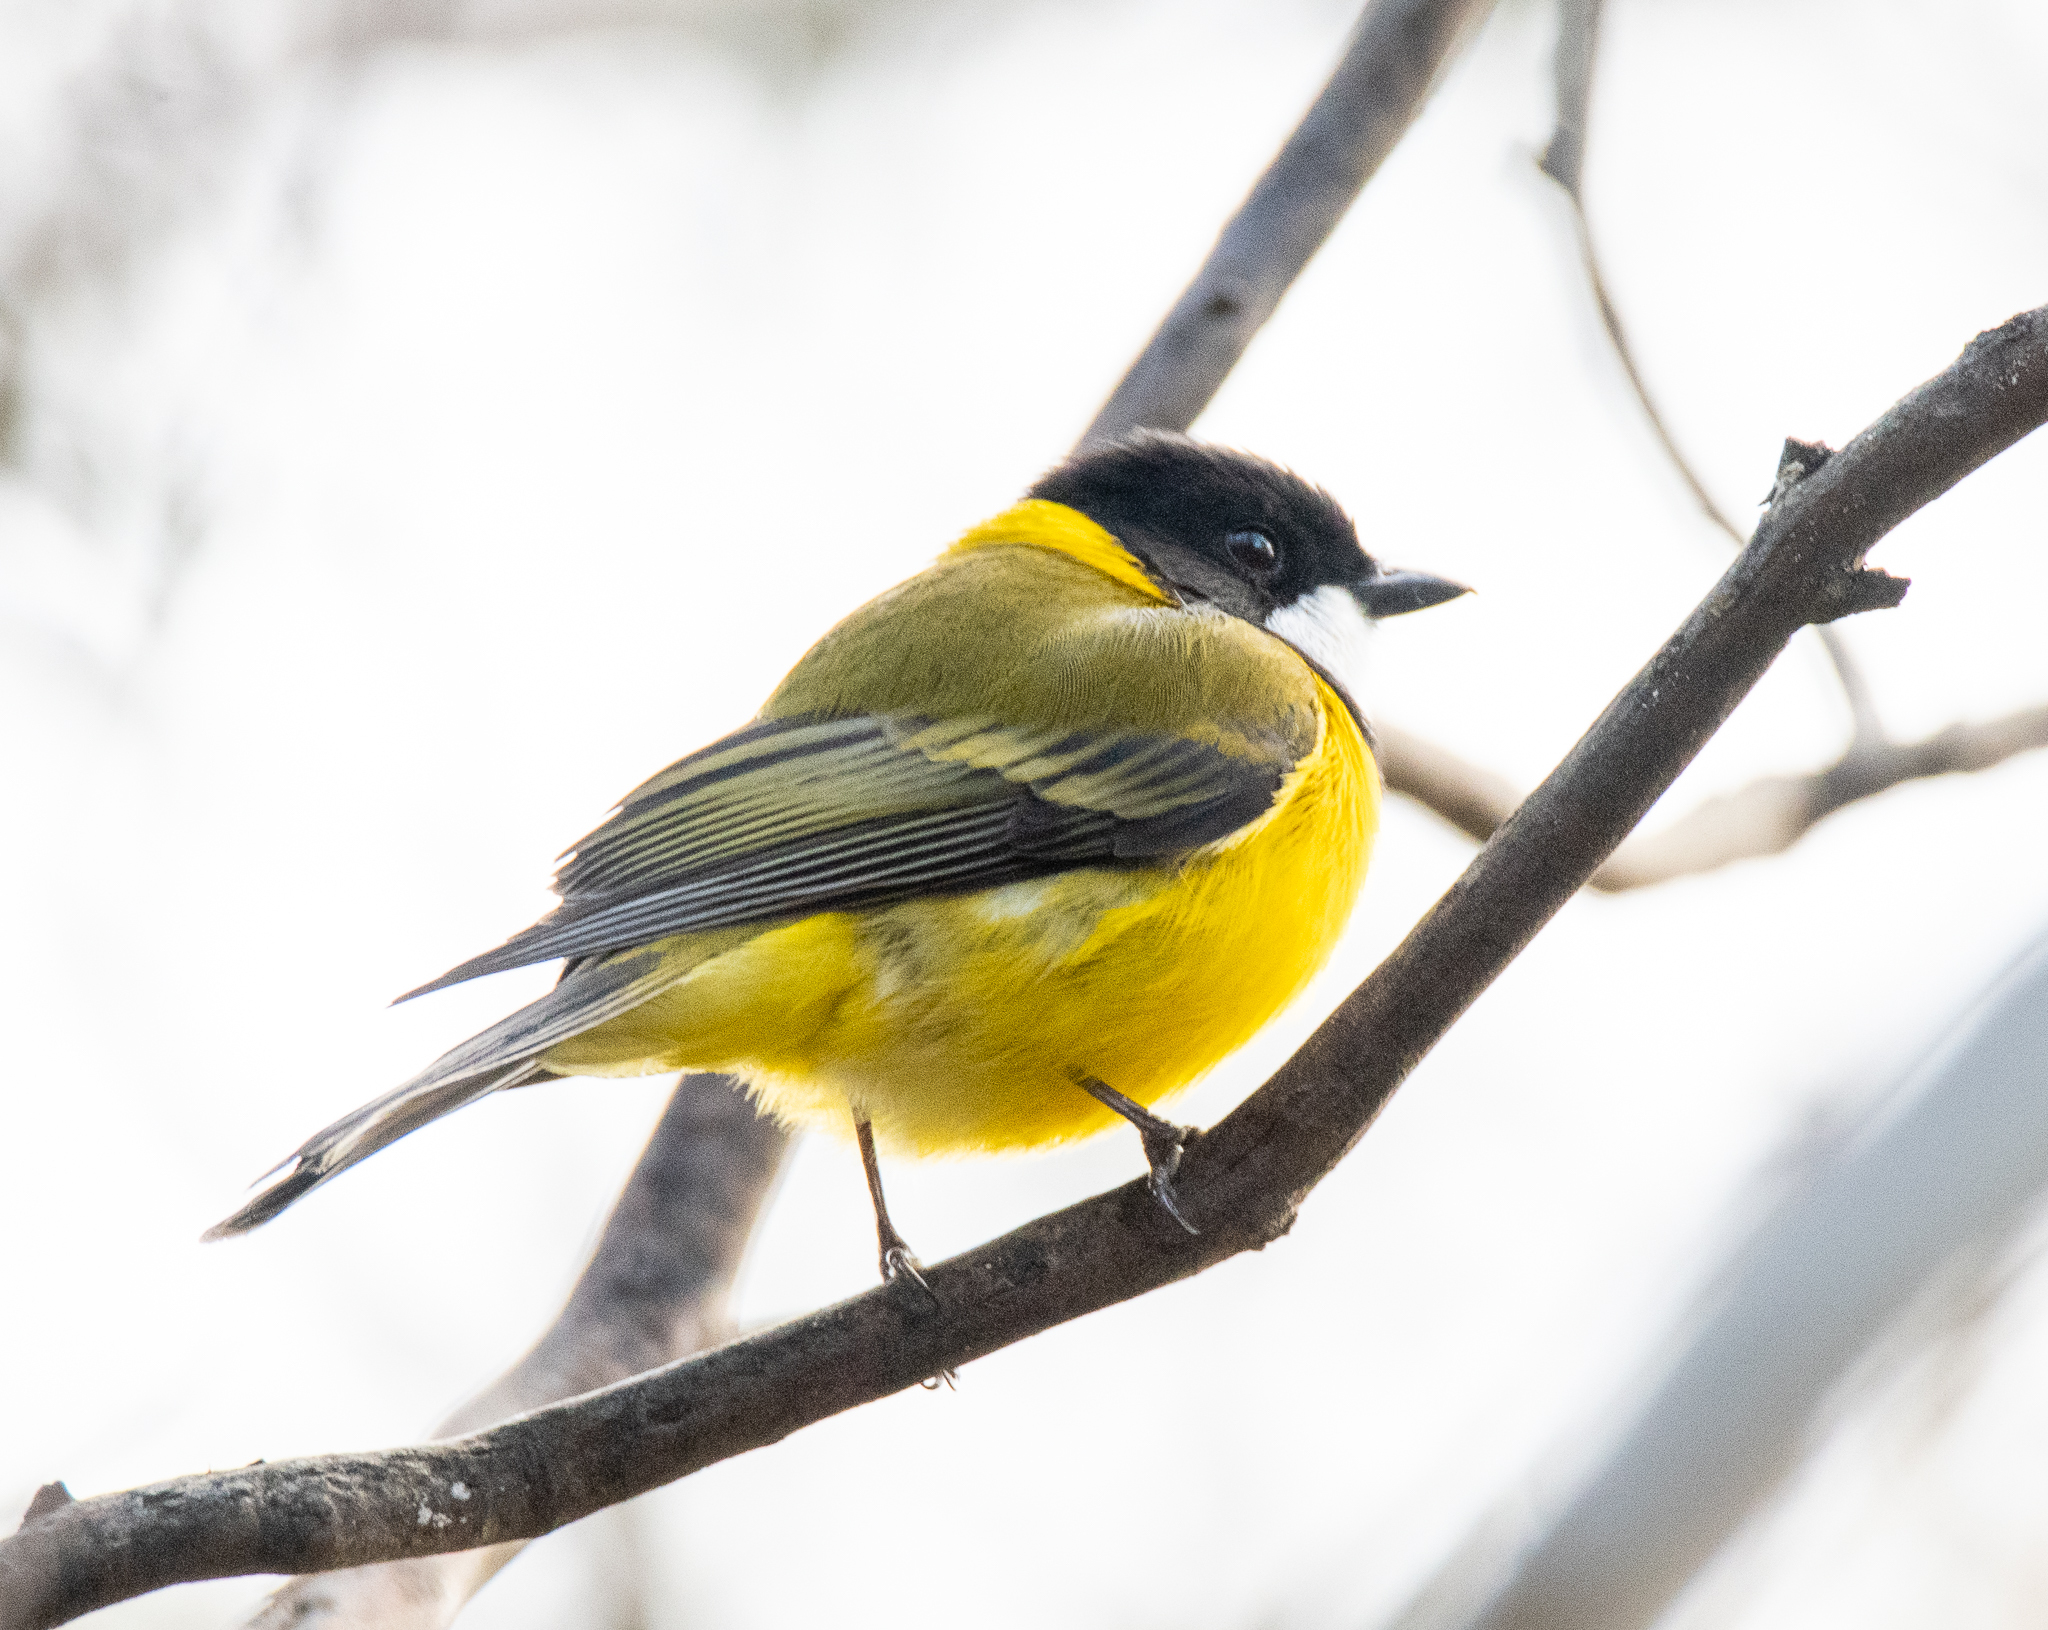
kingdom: Animalia
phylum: Chordata
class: Aves
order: Passeriformes
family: Pachycephalidae
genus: Pachycephala
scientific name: Pachycephala pectoralis
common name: Australian golden whistler
